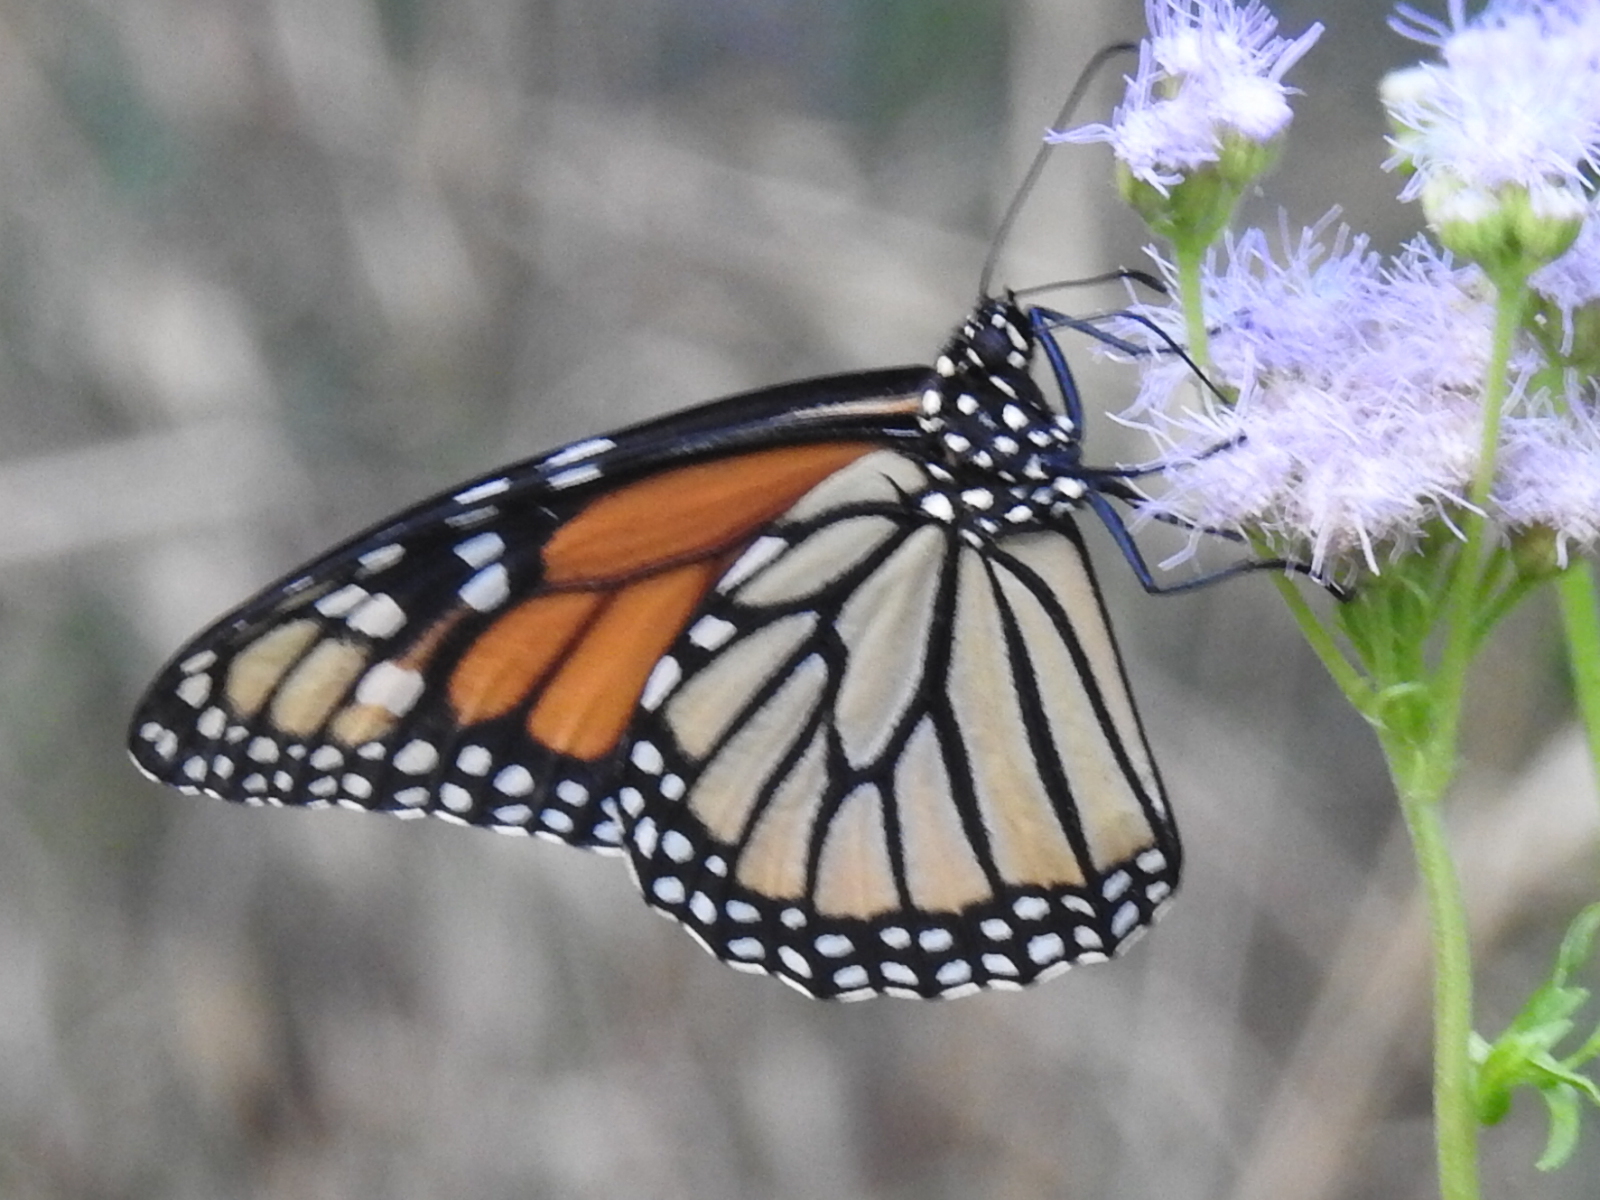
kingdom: Animalia
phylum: Arthropoda
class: Insecta
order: Lepidoptera
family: Nymphalidae
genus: Danaus
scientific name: Danaus plexippus
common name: Monarch
